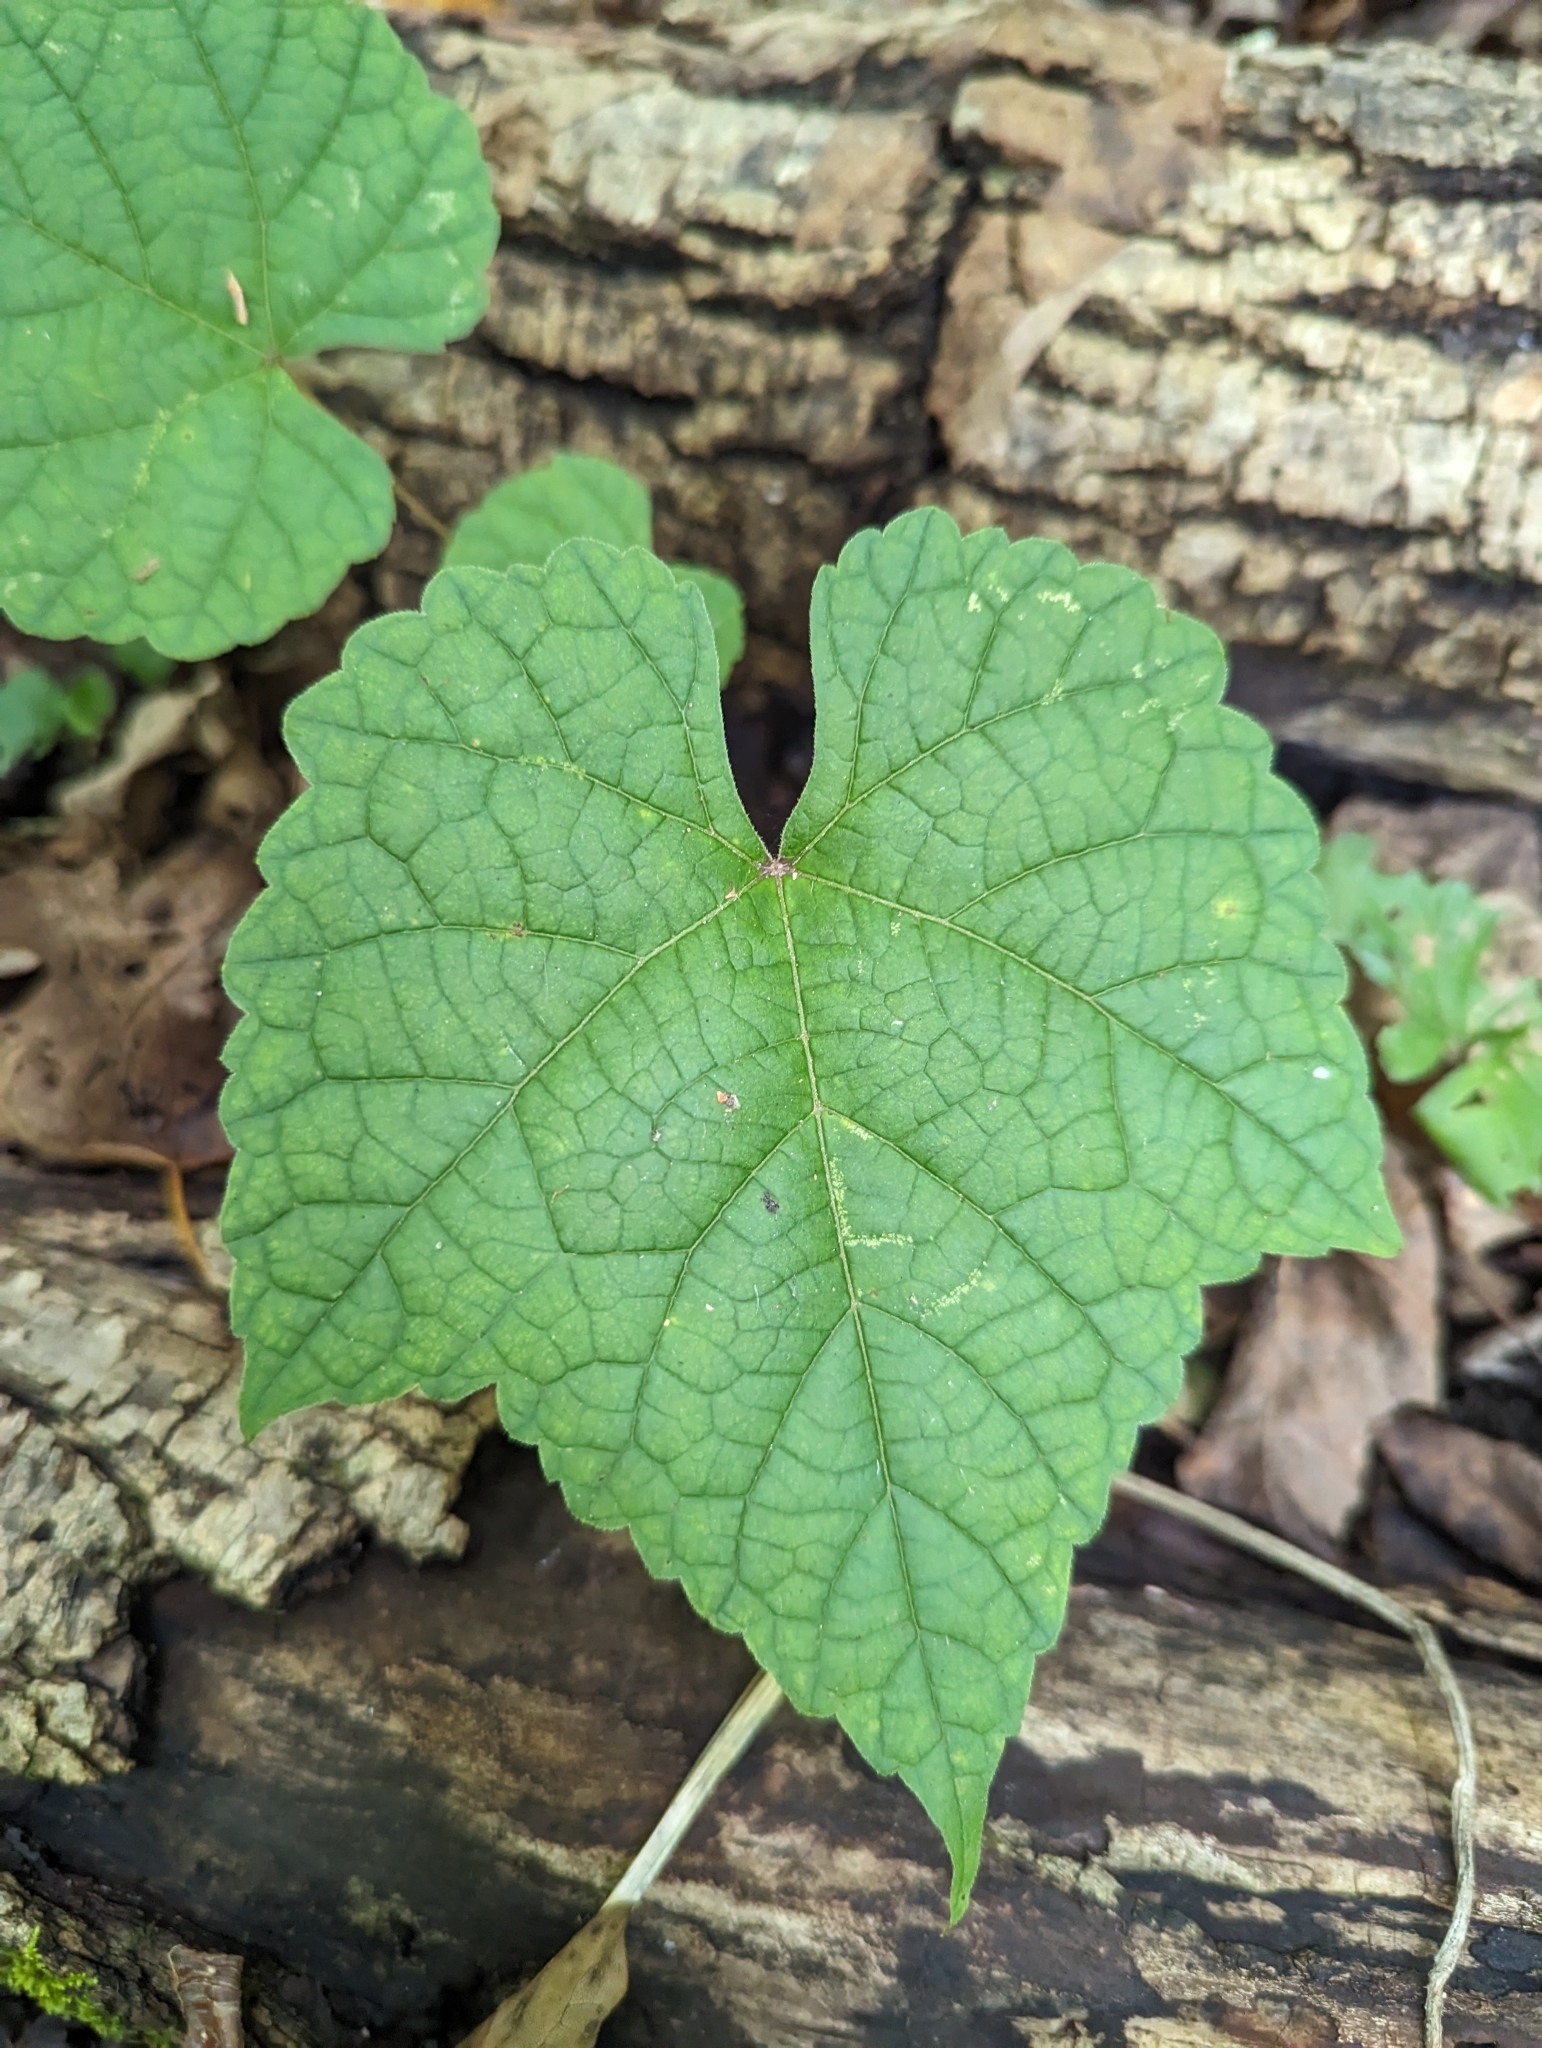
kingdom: Plantae
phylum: Tracheophyta
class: Magnoliopsida
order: Vitales
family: Vitaceae
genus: Vitis
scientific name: Vitis aestivalis
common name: Pigeon grape
